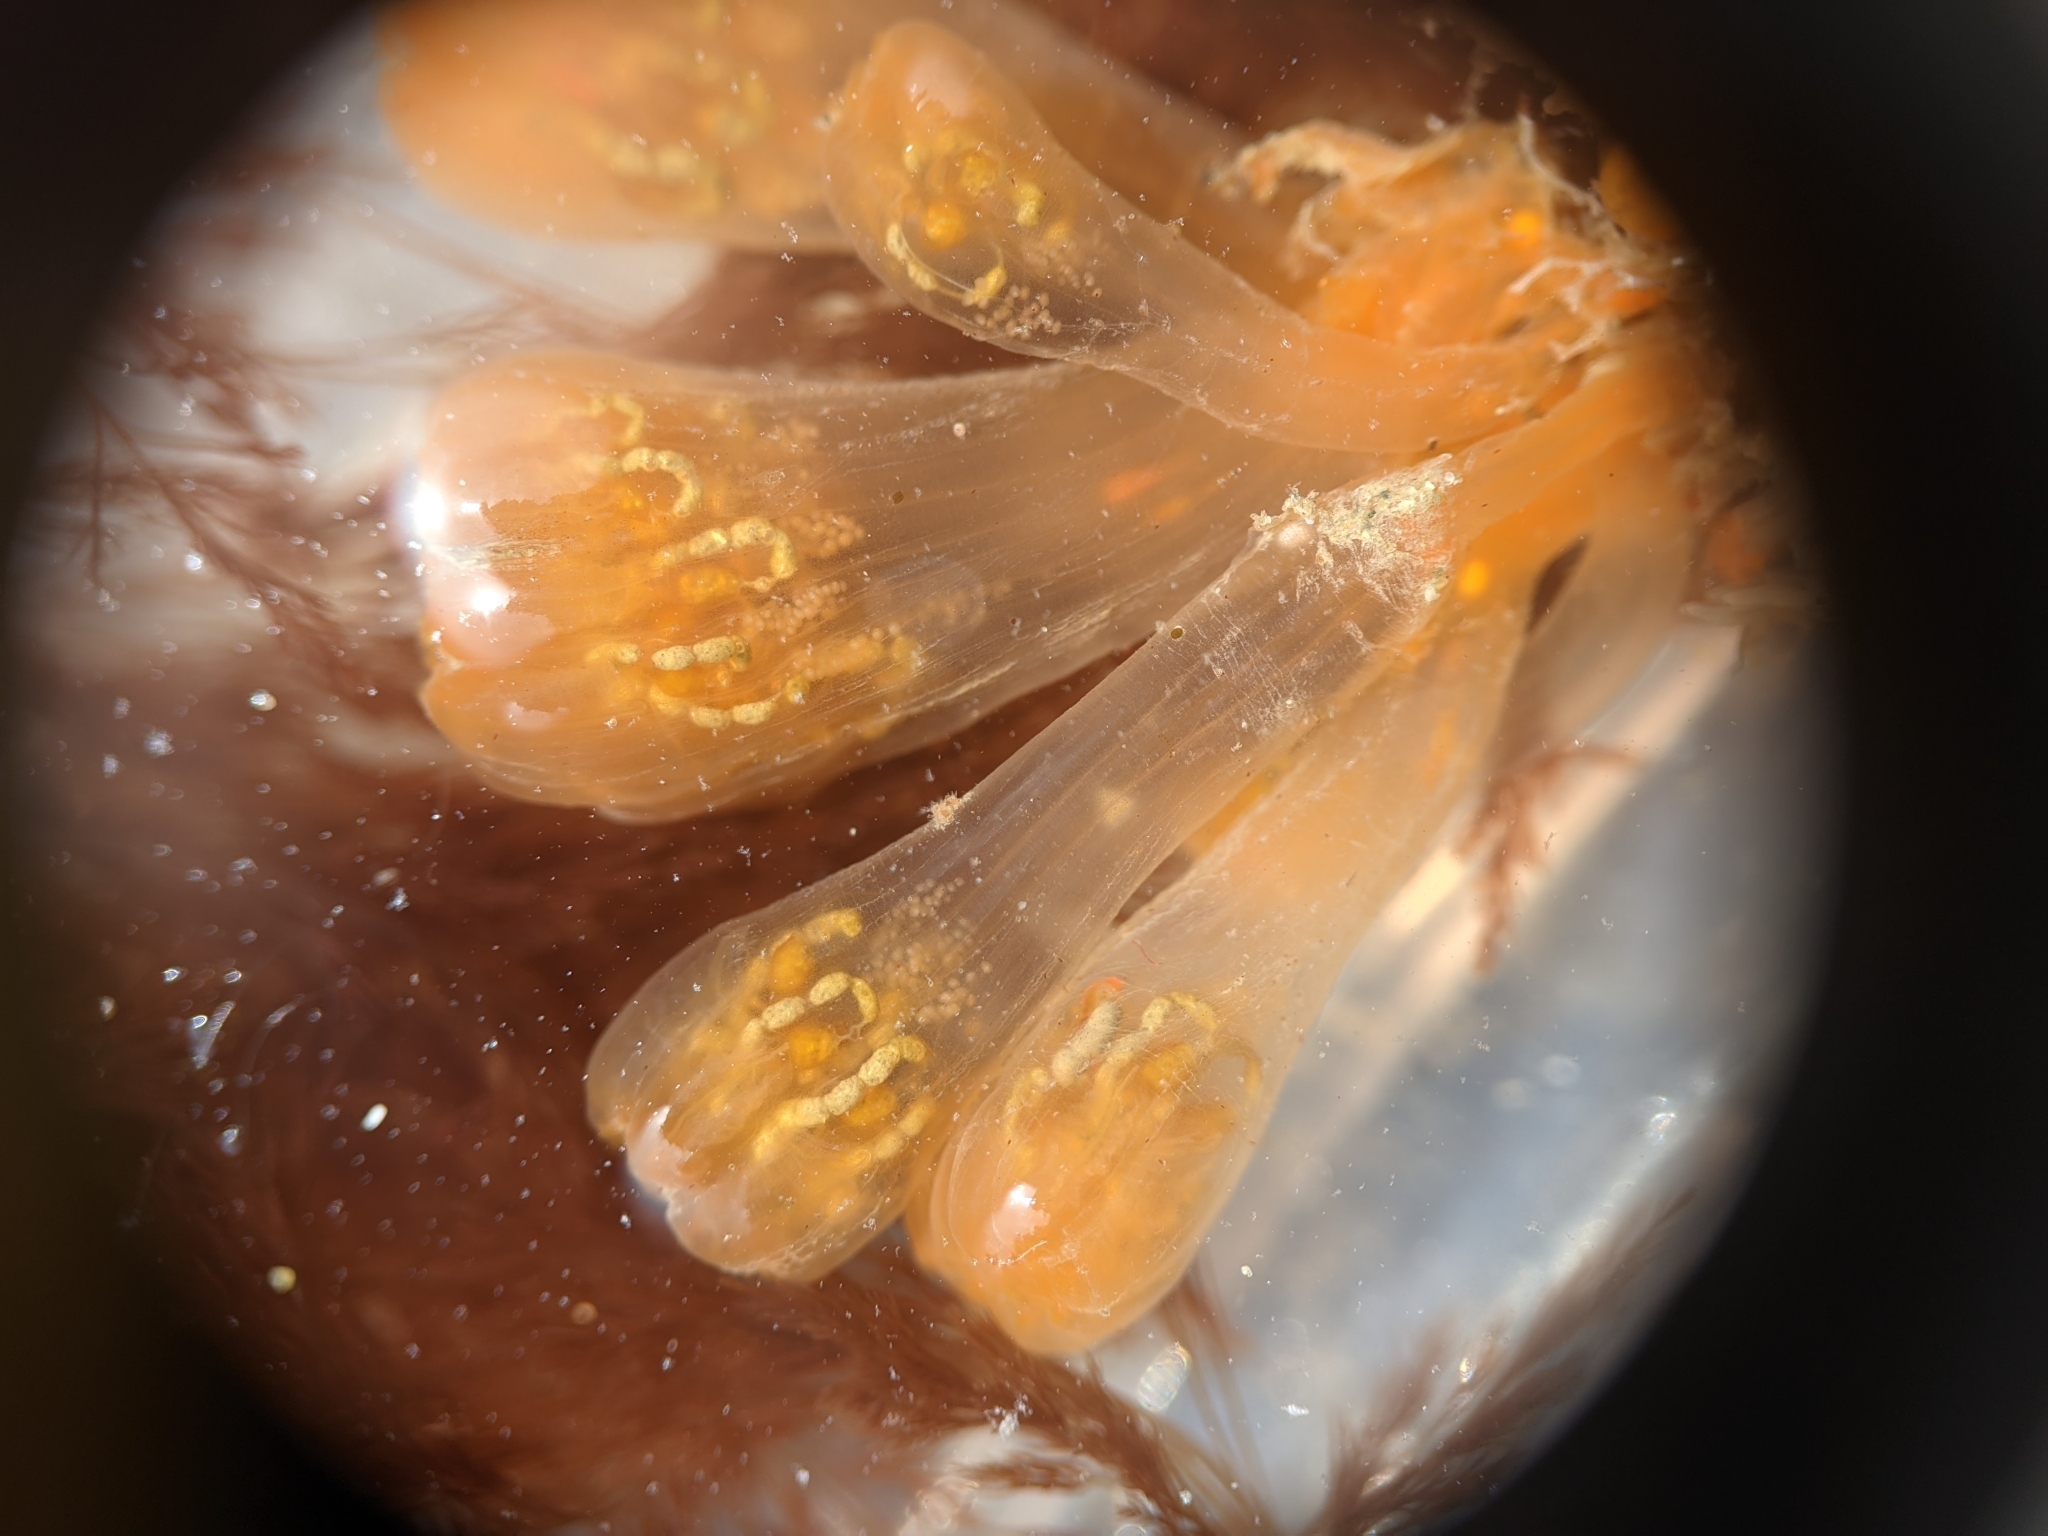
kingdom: Animalia
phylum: Chordata
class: Ascidiacea
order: Aplousobranchia
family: Ritterellidae
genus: Ritterella
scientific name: Ritterella pulchra
